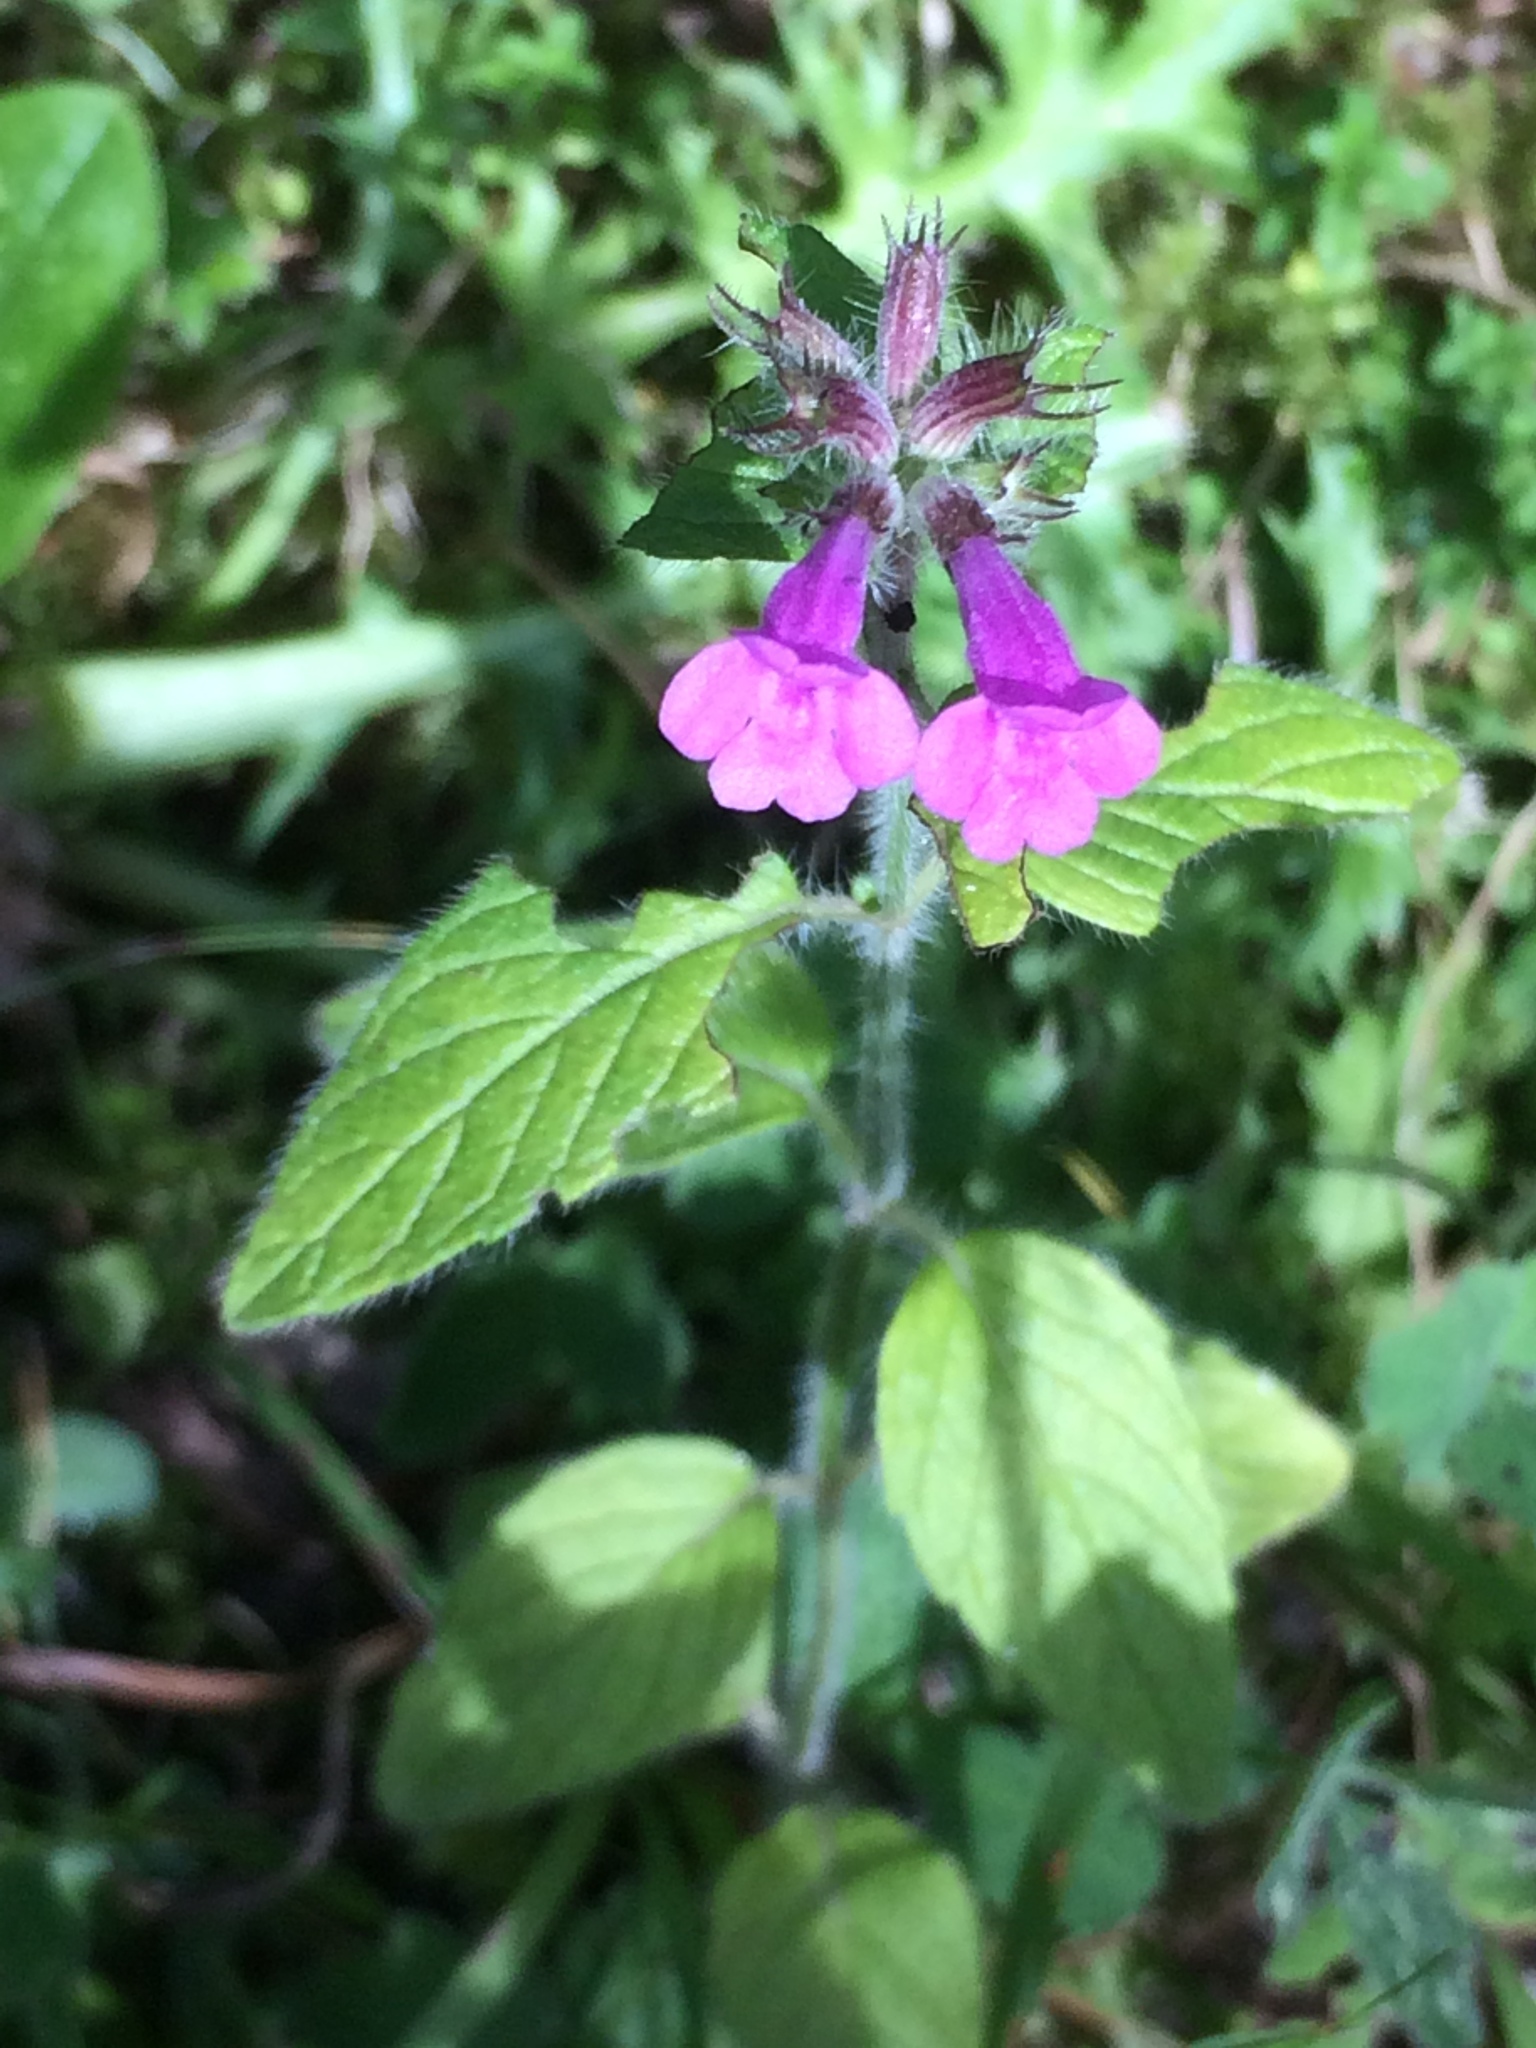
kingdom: Plantae
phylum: Tracheophyta
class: Magnoliopsida
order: Lamiales
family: Lamiaceae
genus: Clinopodium
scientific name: Clinopodium vulgare
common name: Wild basil
